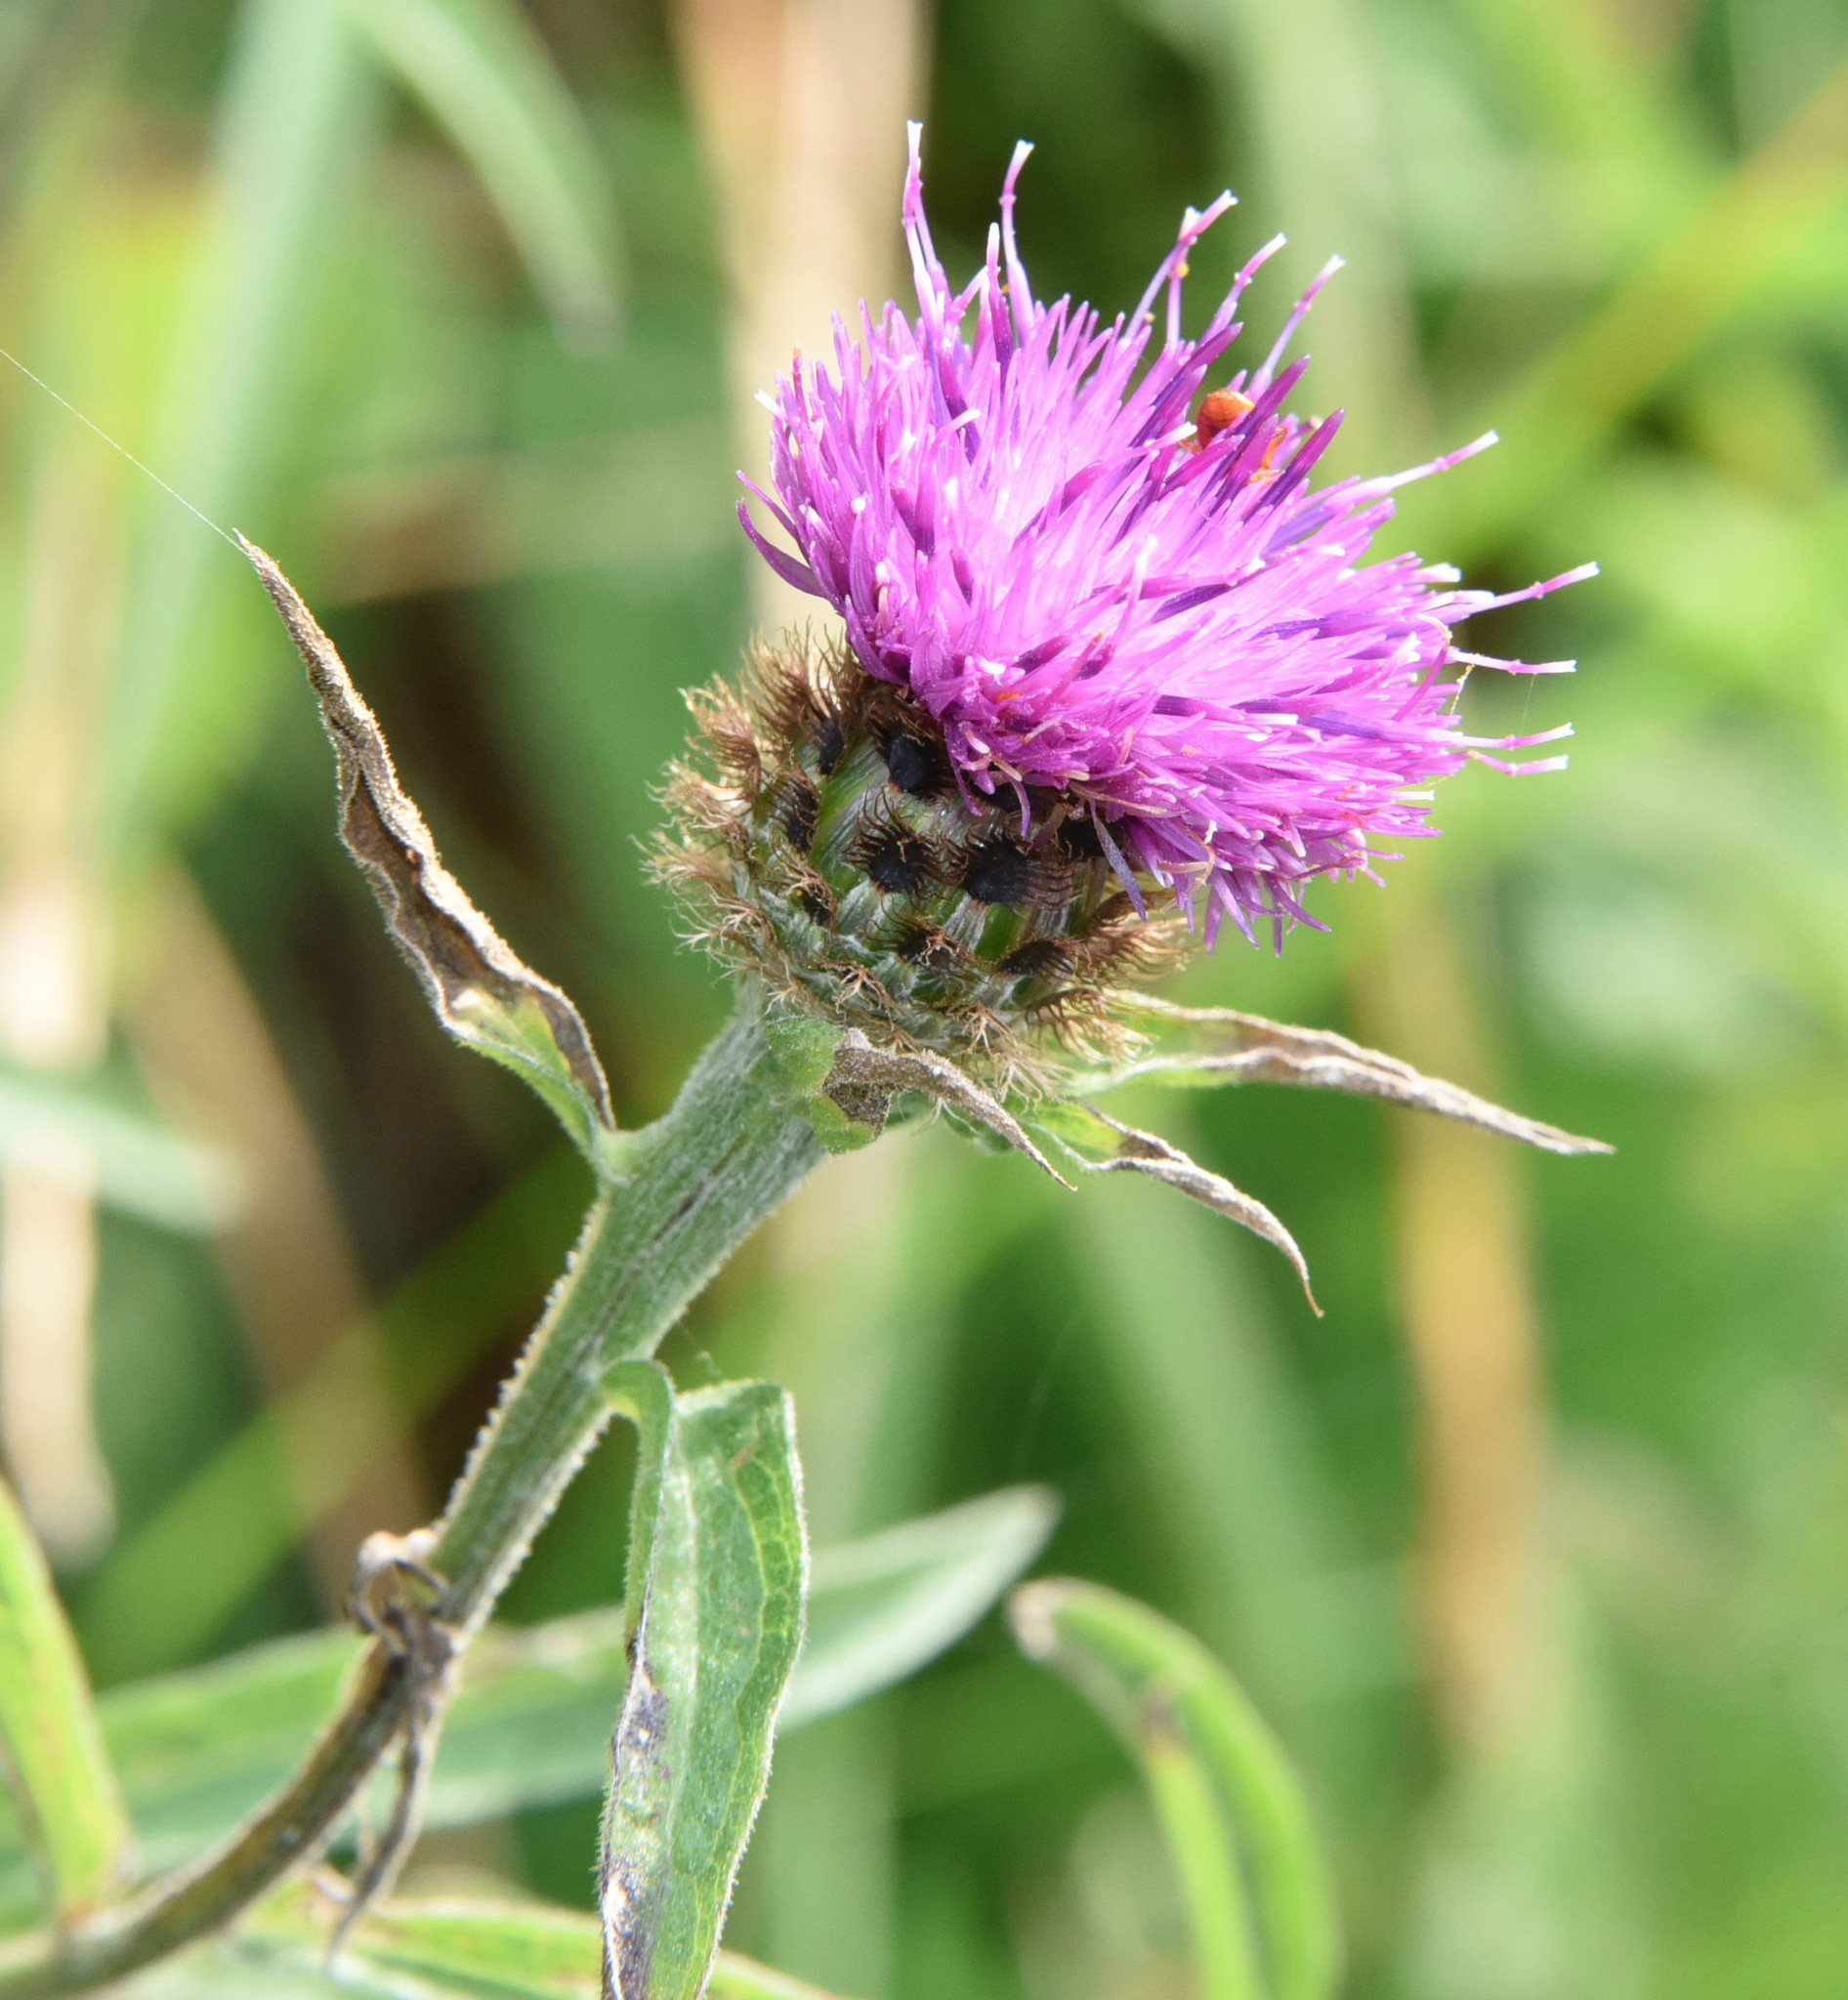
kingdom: Plantae
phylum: Tracheophyta
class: Magnoliopsida
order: Asterales
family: Asteraceae
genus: Centaurea
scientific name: Centaurea nigra
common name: Lesser knapweed
